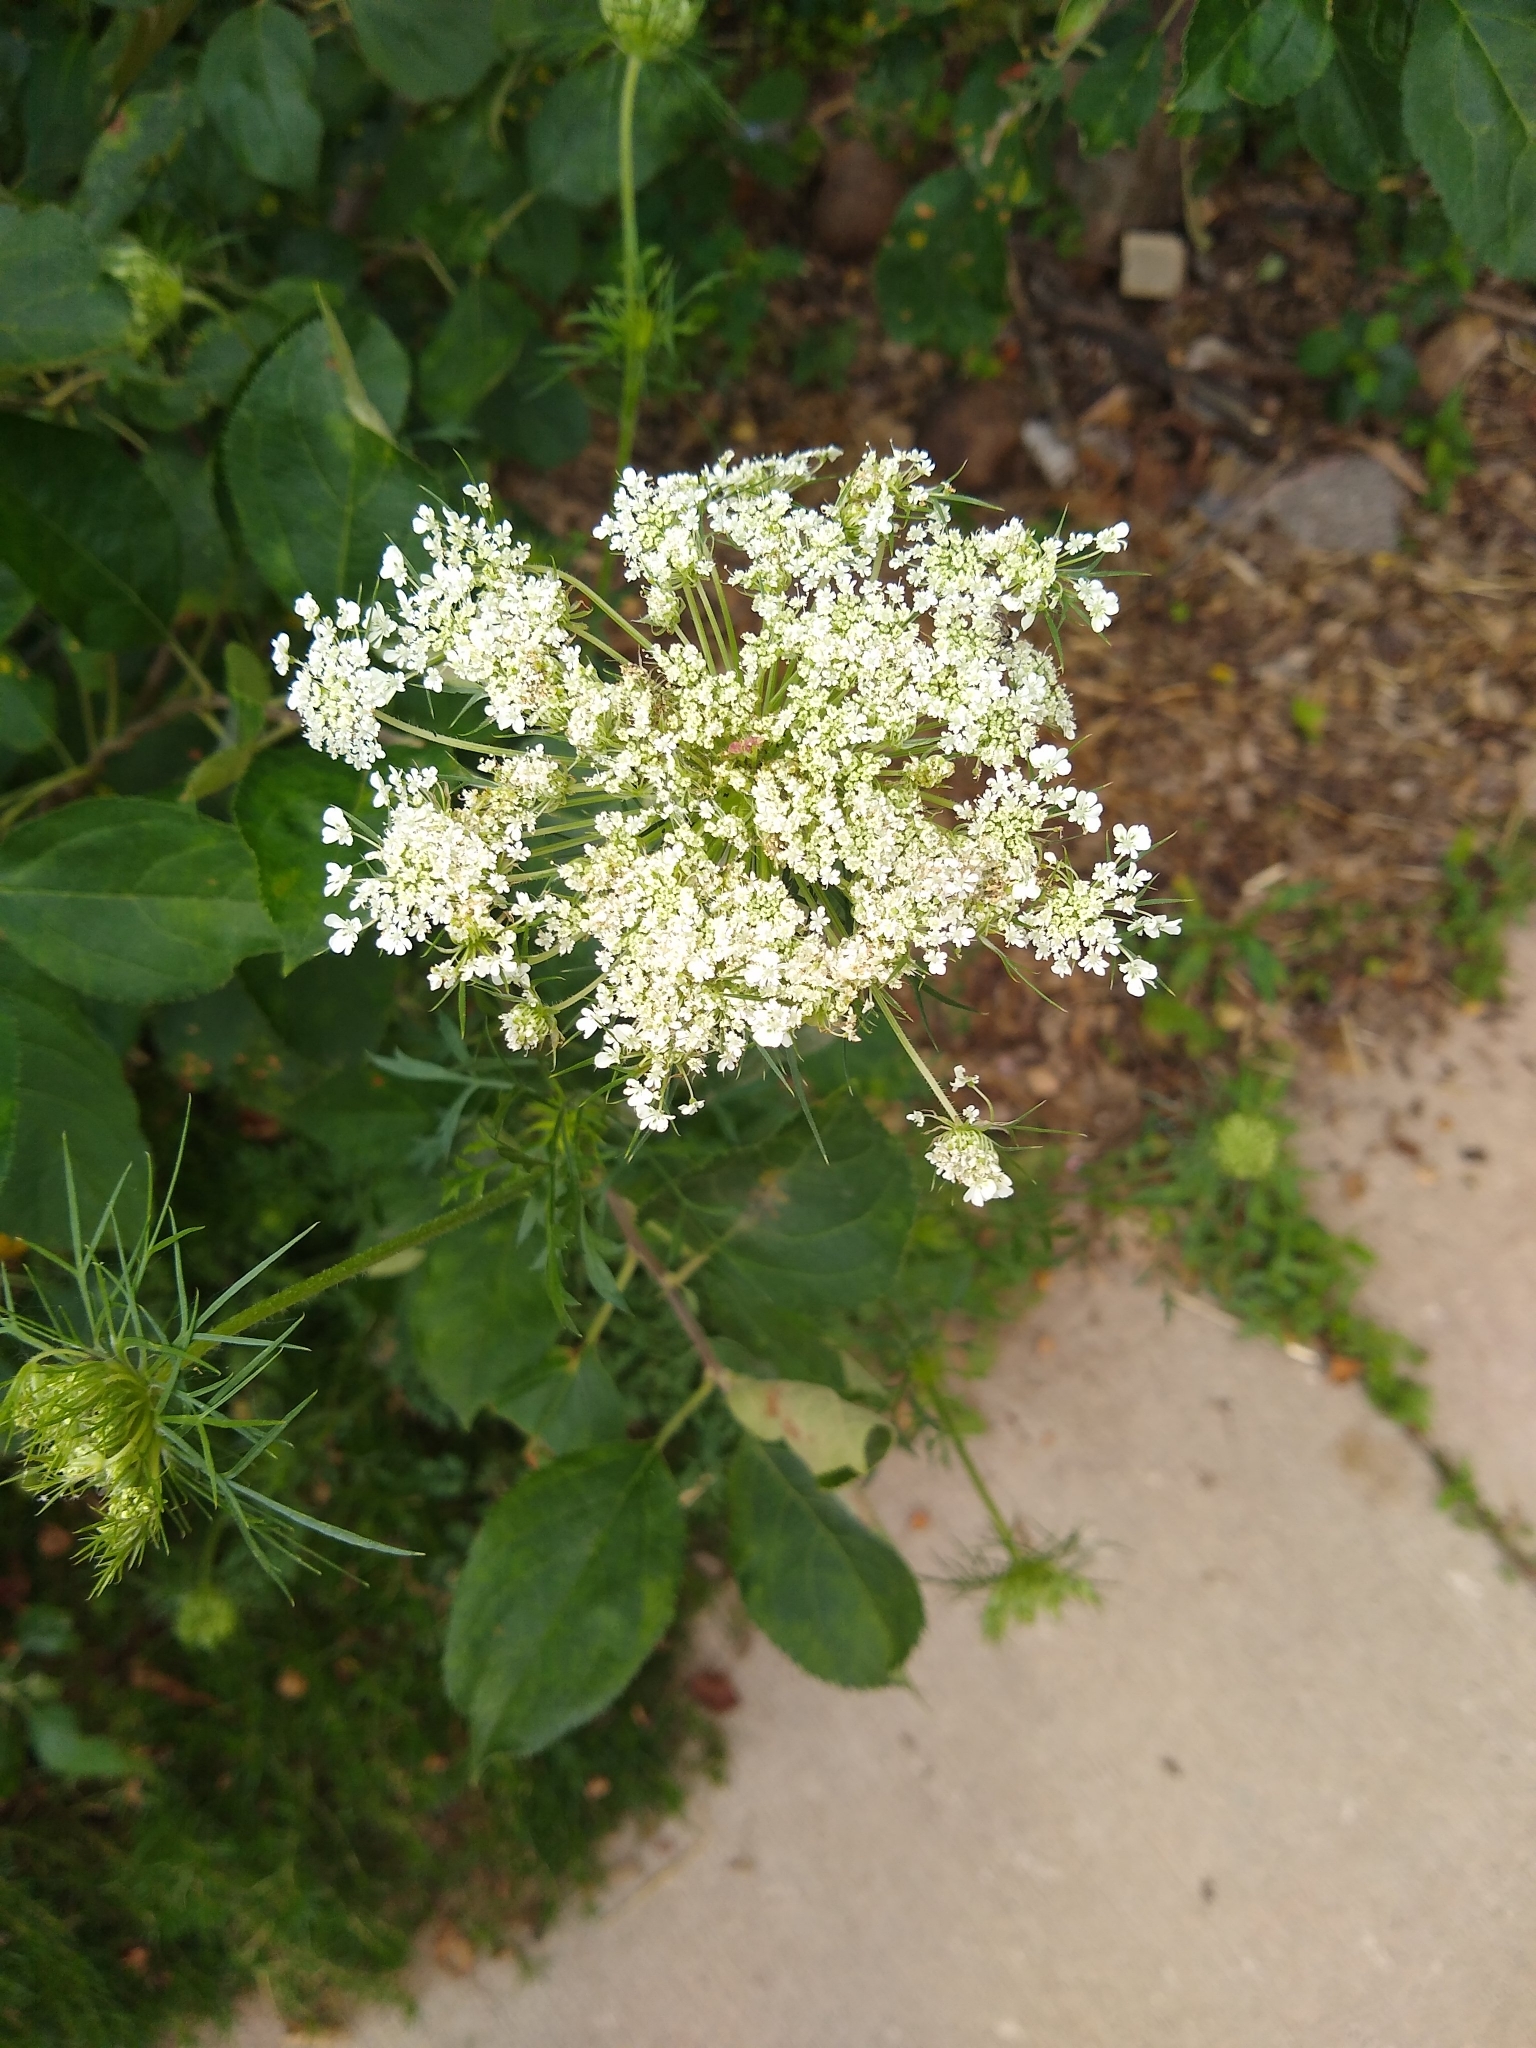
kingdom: Plantae
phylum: Tracheophyta
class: Magnoliopsida
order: Apiales
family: Apiaceae
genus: Daucus
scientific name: Daucus carota
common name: Wild carrot
